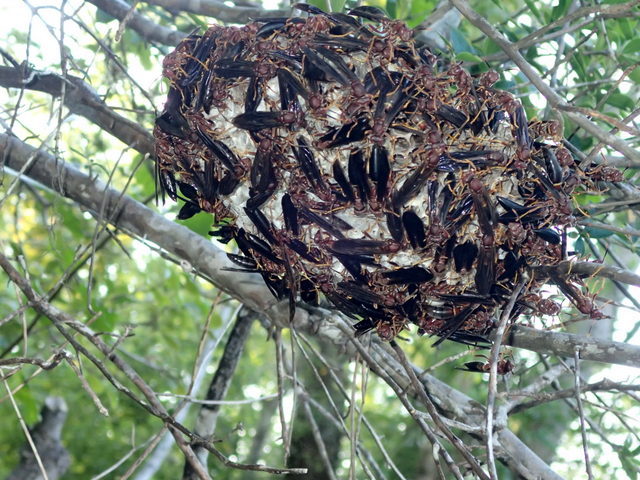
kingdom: Animalia
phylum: Arthropoda
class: Insecta
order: Hymenoptera
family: Eumenidae
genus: Polistes
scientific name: Polistes annularis
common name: Ringed paper wasp
